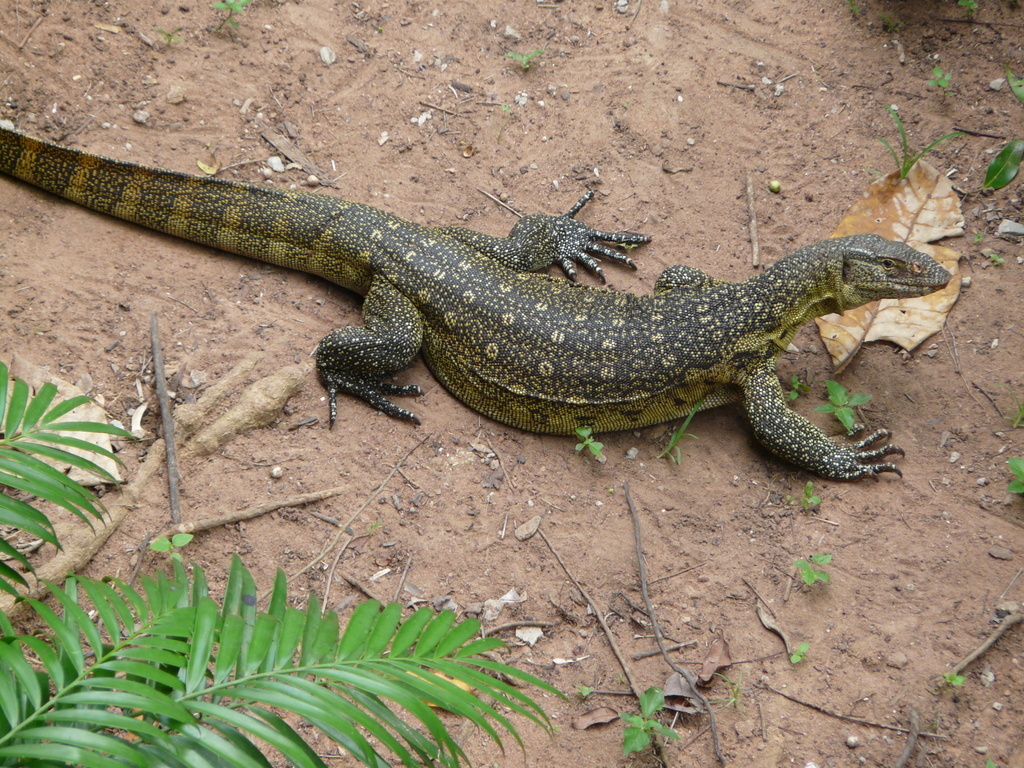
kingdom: Animalia
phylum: Chordata
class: Squamata
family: Varanidae
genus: Varanus
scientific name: Varanus niloticus
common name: Nile monitor
